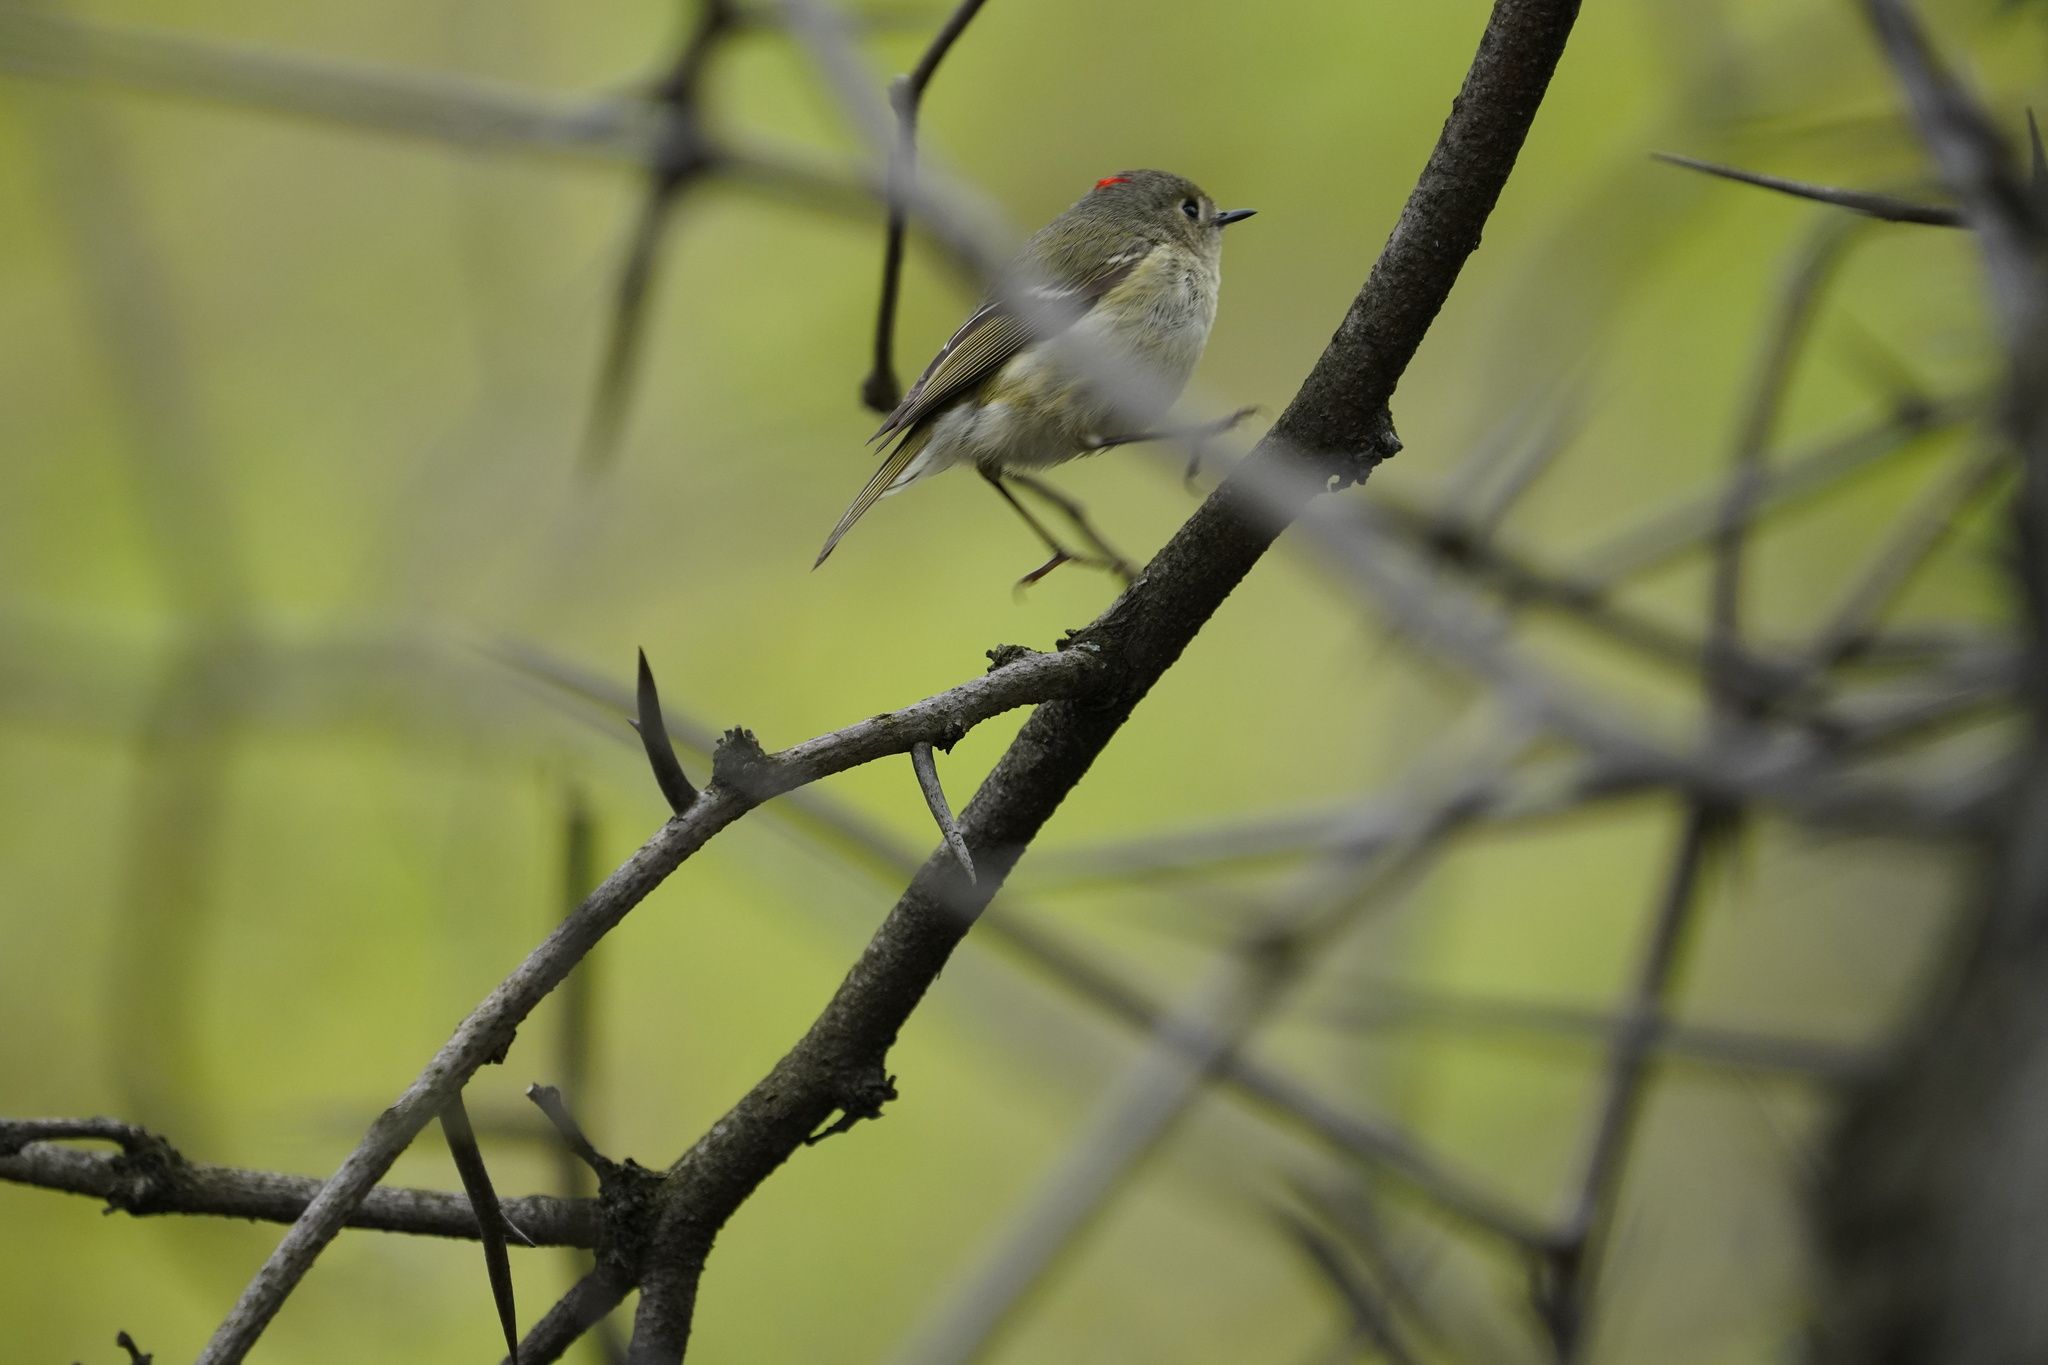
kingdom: Animalia
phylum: Chordata
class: Aves
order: Passeriformes
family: Regulidae
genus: Regulus
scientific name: Regulus calendula
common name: Ruby-crowned kinglet
